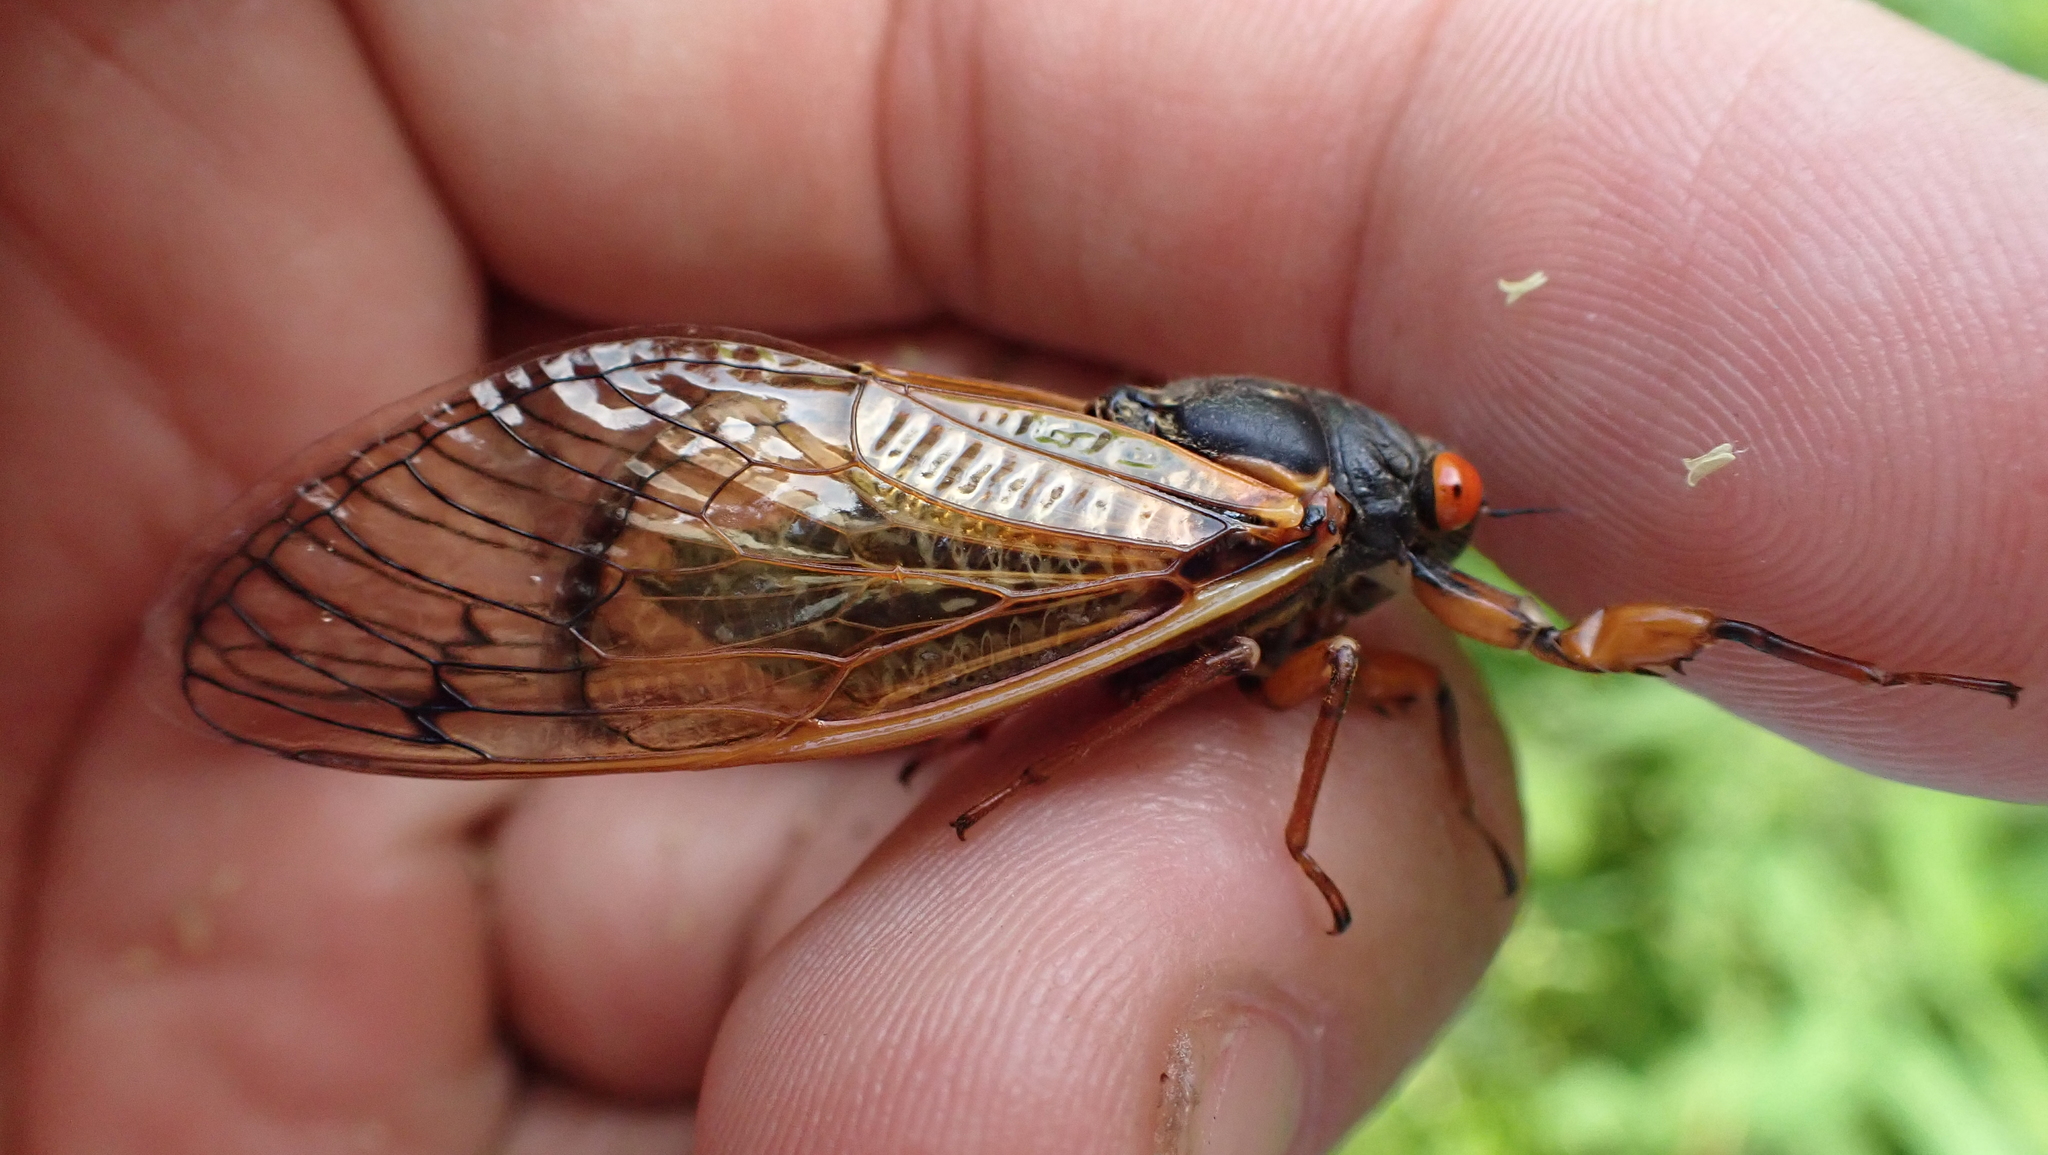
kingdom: Animalia
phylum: Arthropoda
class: Insecta
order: Hemiptera
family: Cicadidae
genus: Magicicada
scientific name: Magicicada cassini
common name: Cassin's 17-year cicada
